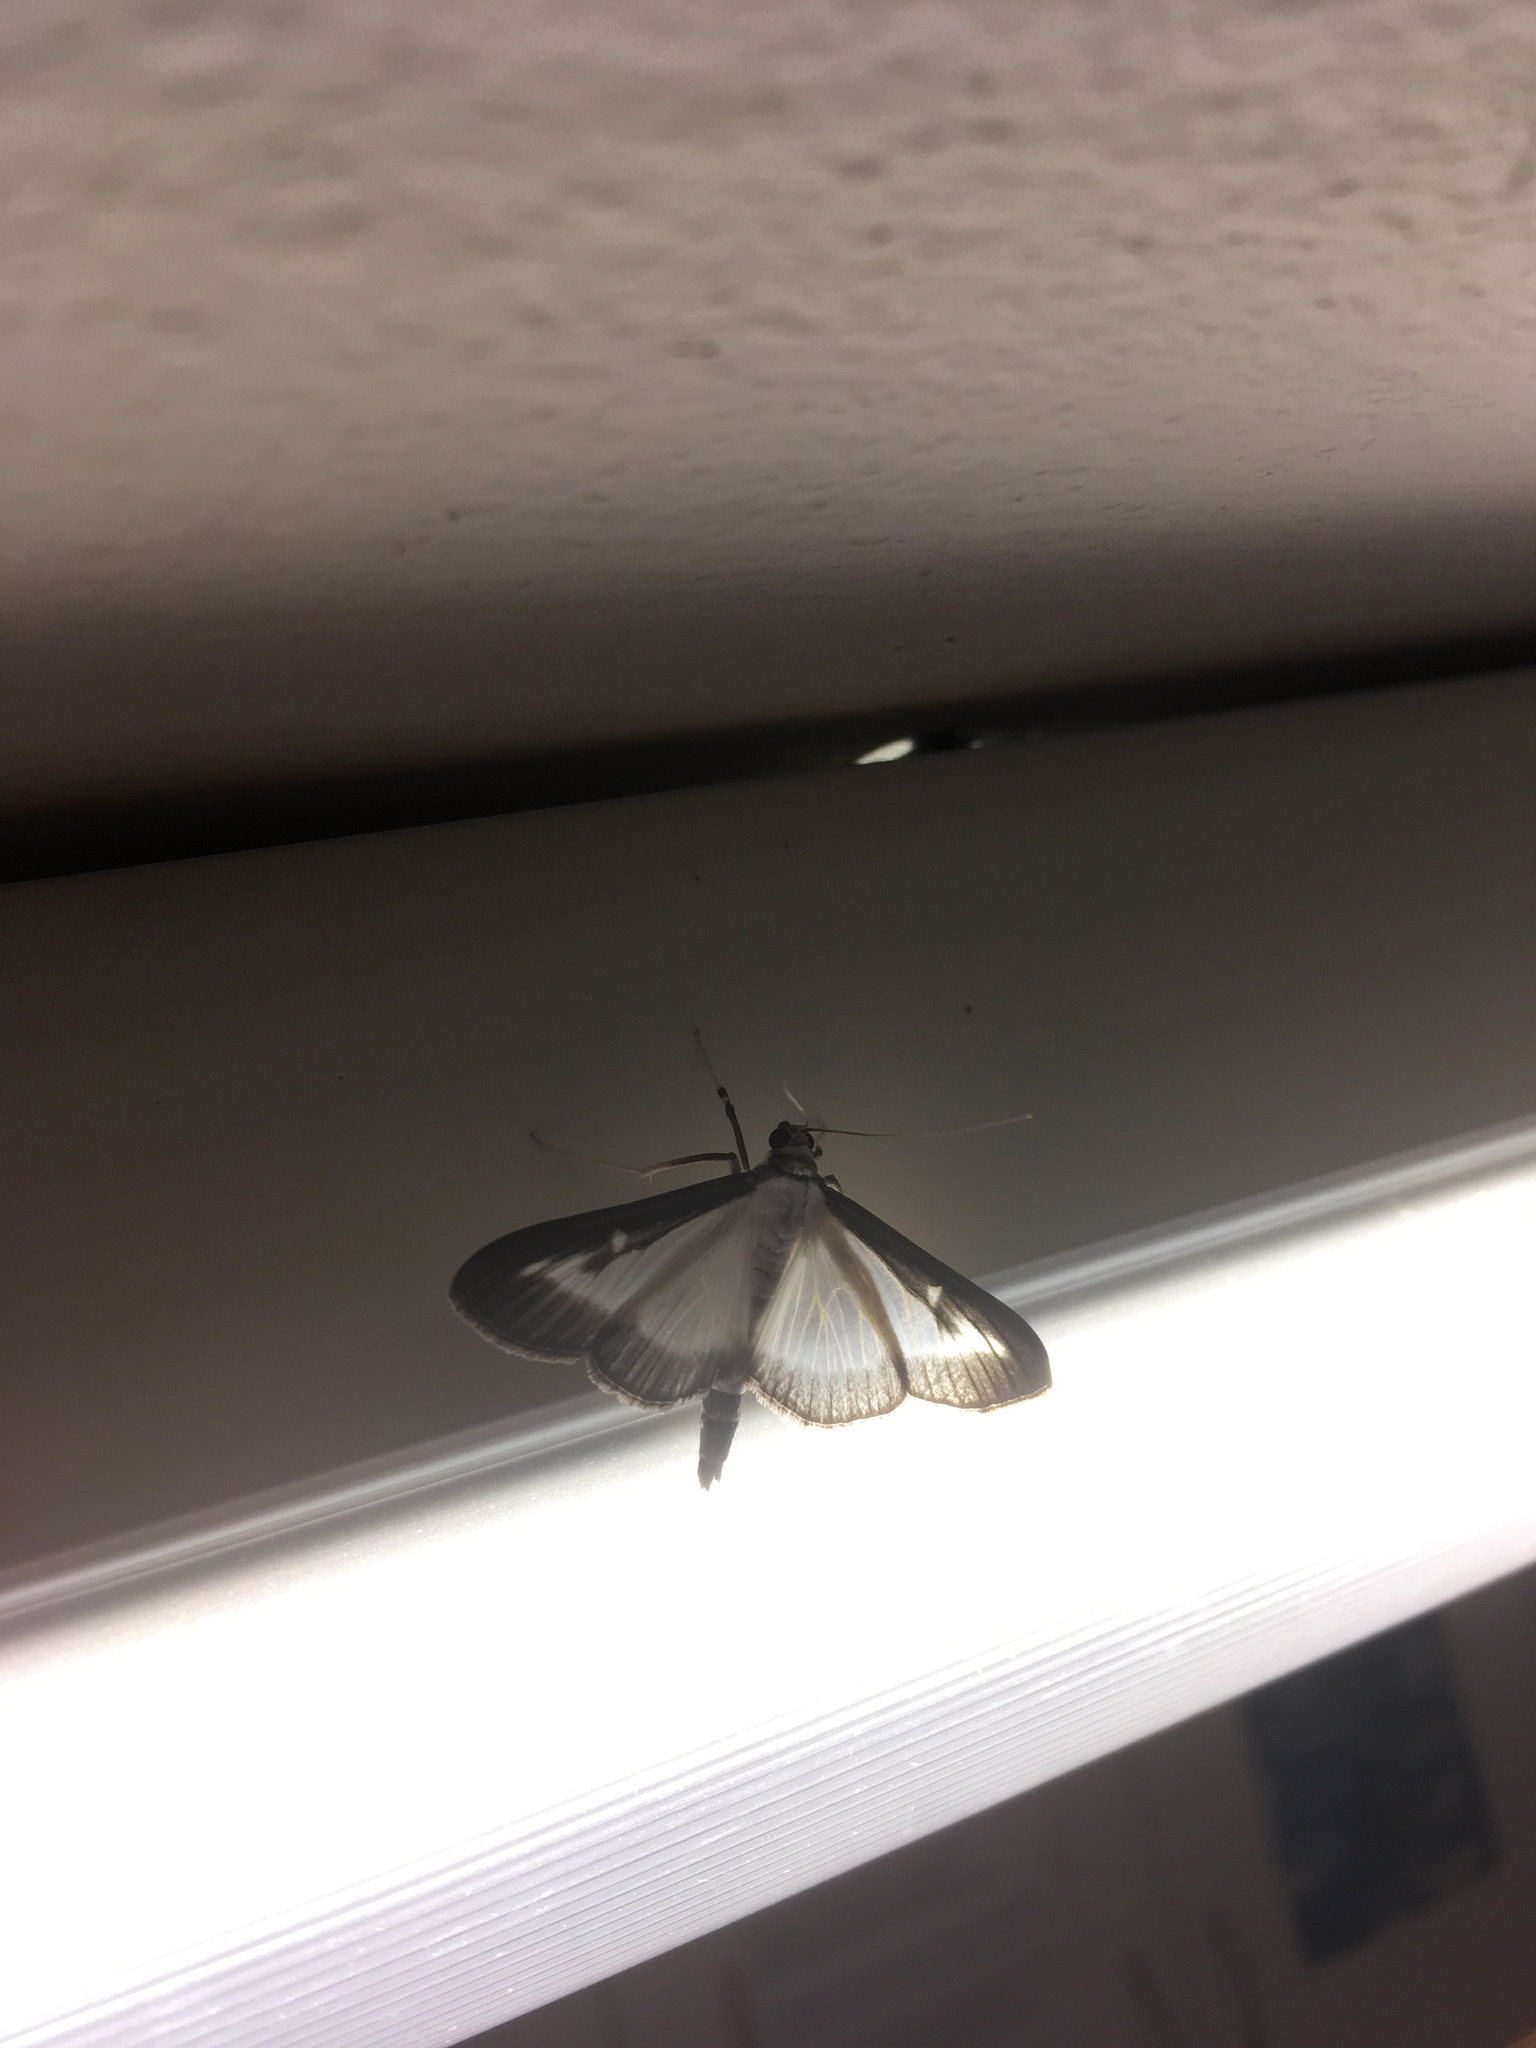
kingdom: Animalia
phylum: Arthropoda
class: Insecta
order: Lepidoptera
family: Crambidae
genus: Cydalima
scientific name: Cydalima perspectalis
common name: Box tree moth
